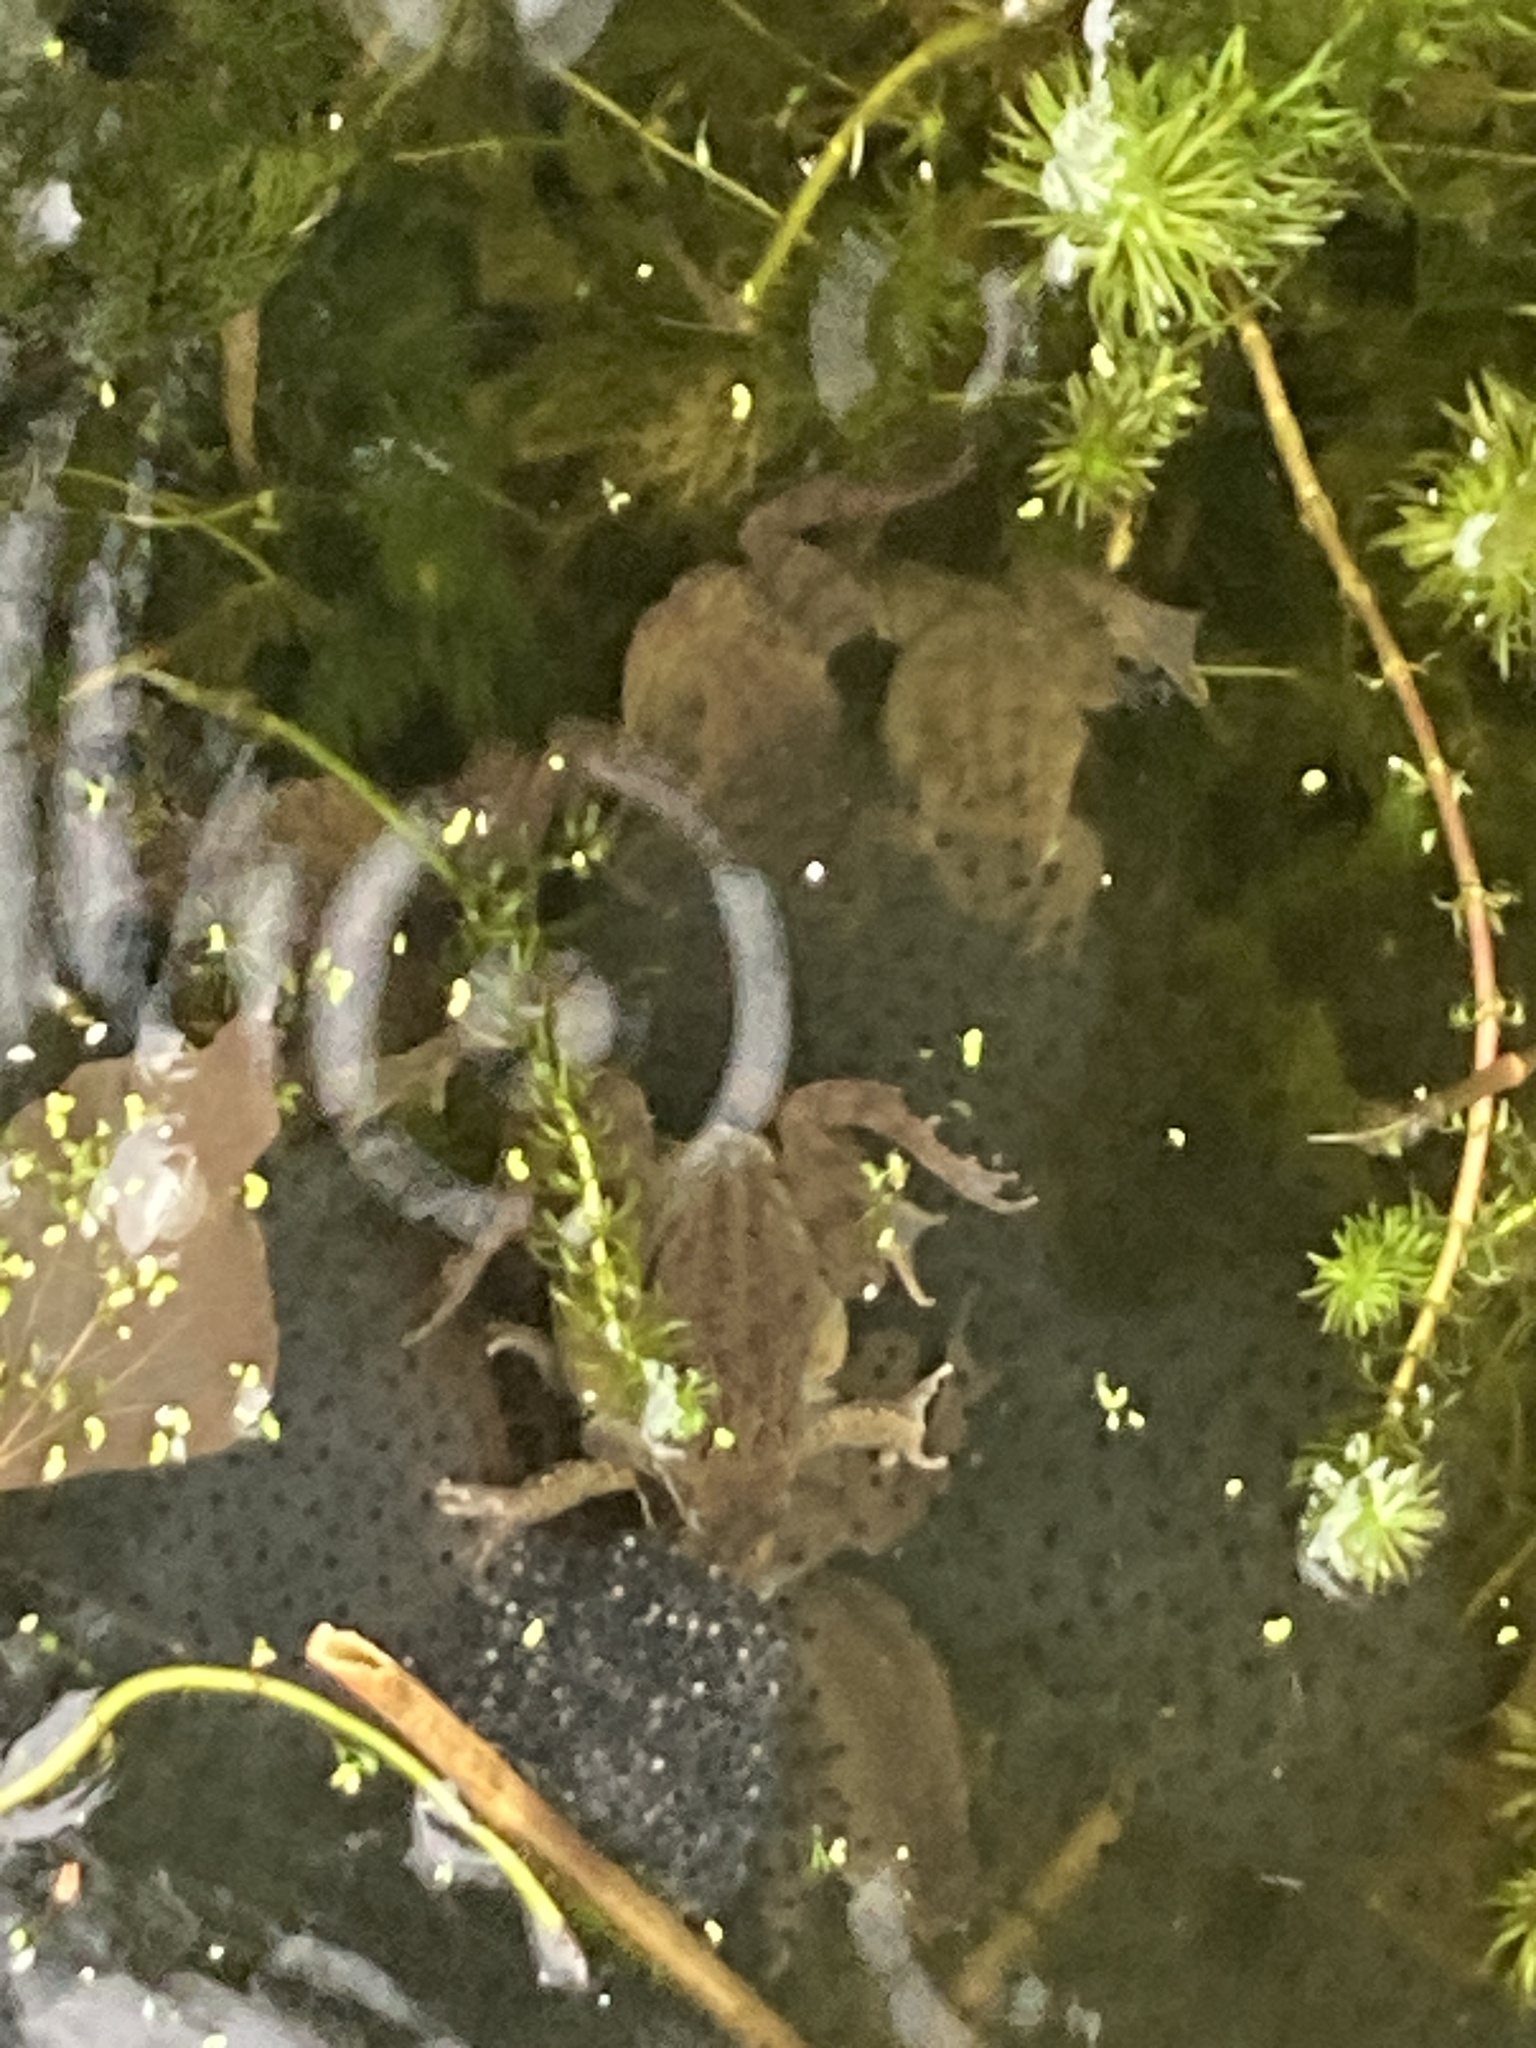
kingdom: Animalia
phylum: Chordata
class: Amphibia
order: Anura
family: Ranidae
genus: Rana
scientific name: Rana temporaria
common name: Common frog
